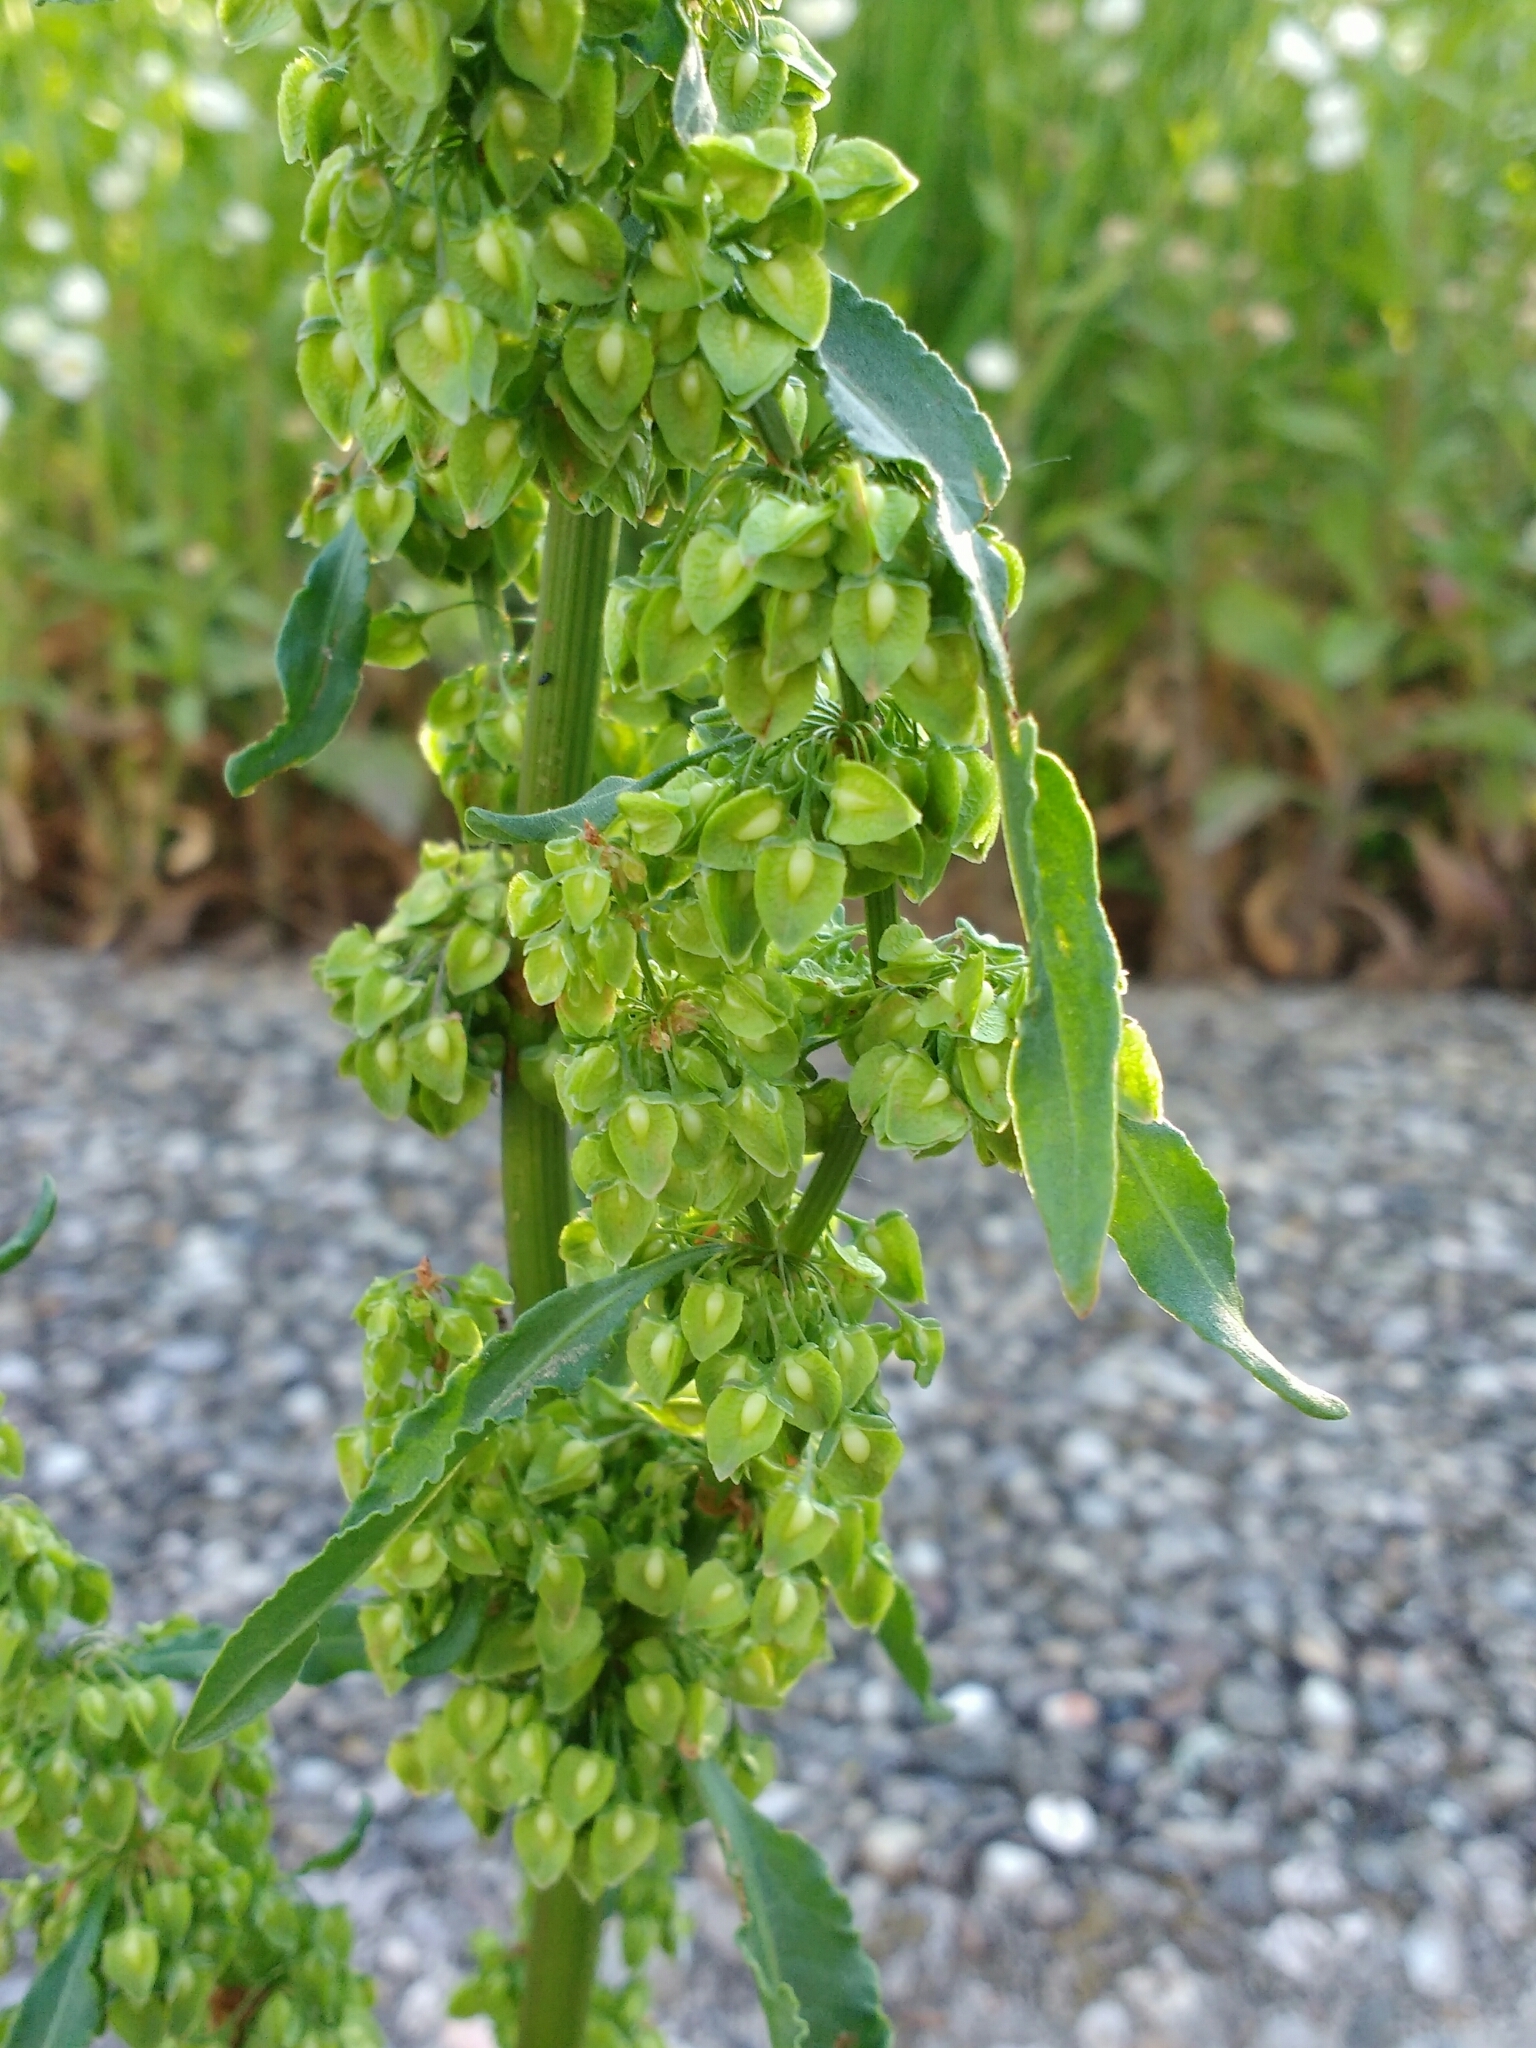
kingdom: Plantae
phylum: Tracheophyta
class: Magnoliopsida
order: Caryophyllales
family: Polygonaceae
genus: Rumex
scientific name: Rumex crispus
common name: Curled dock
